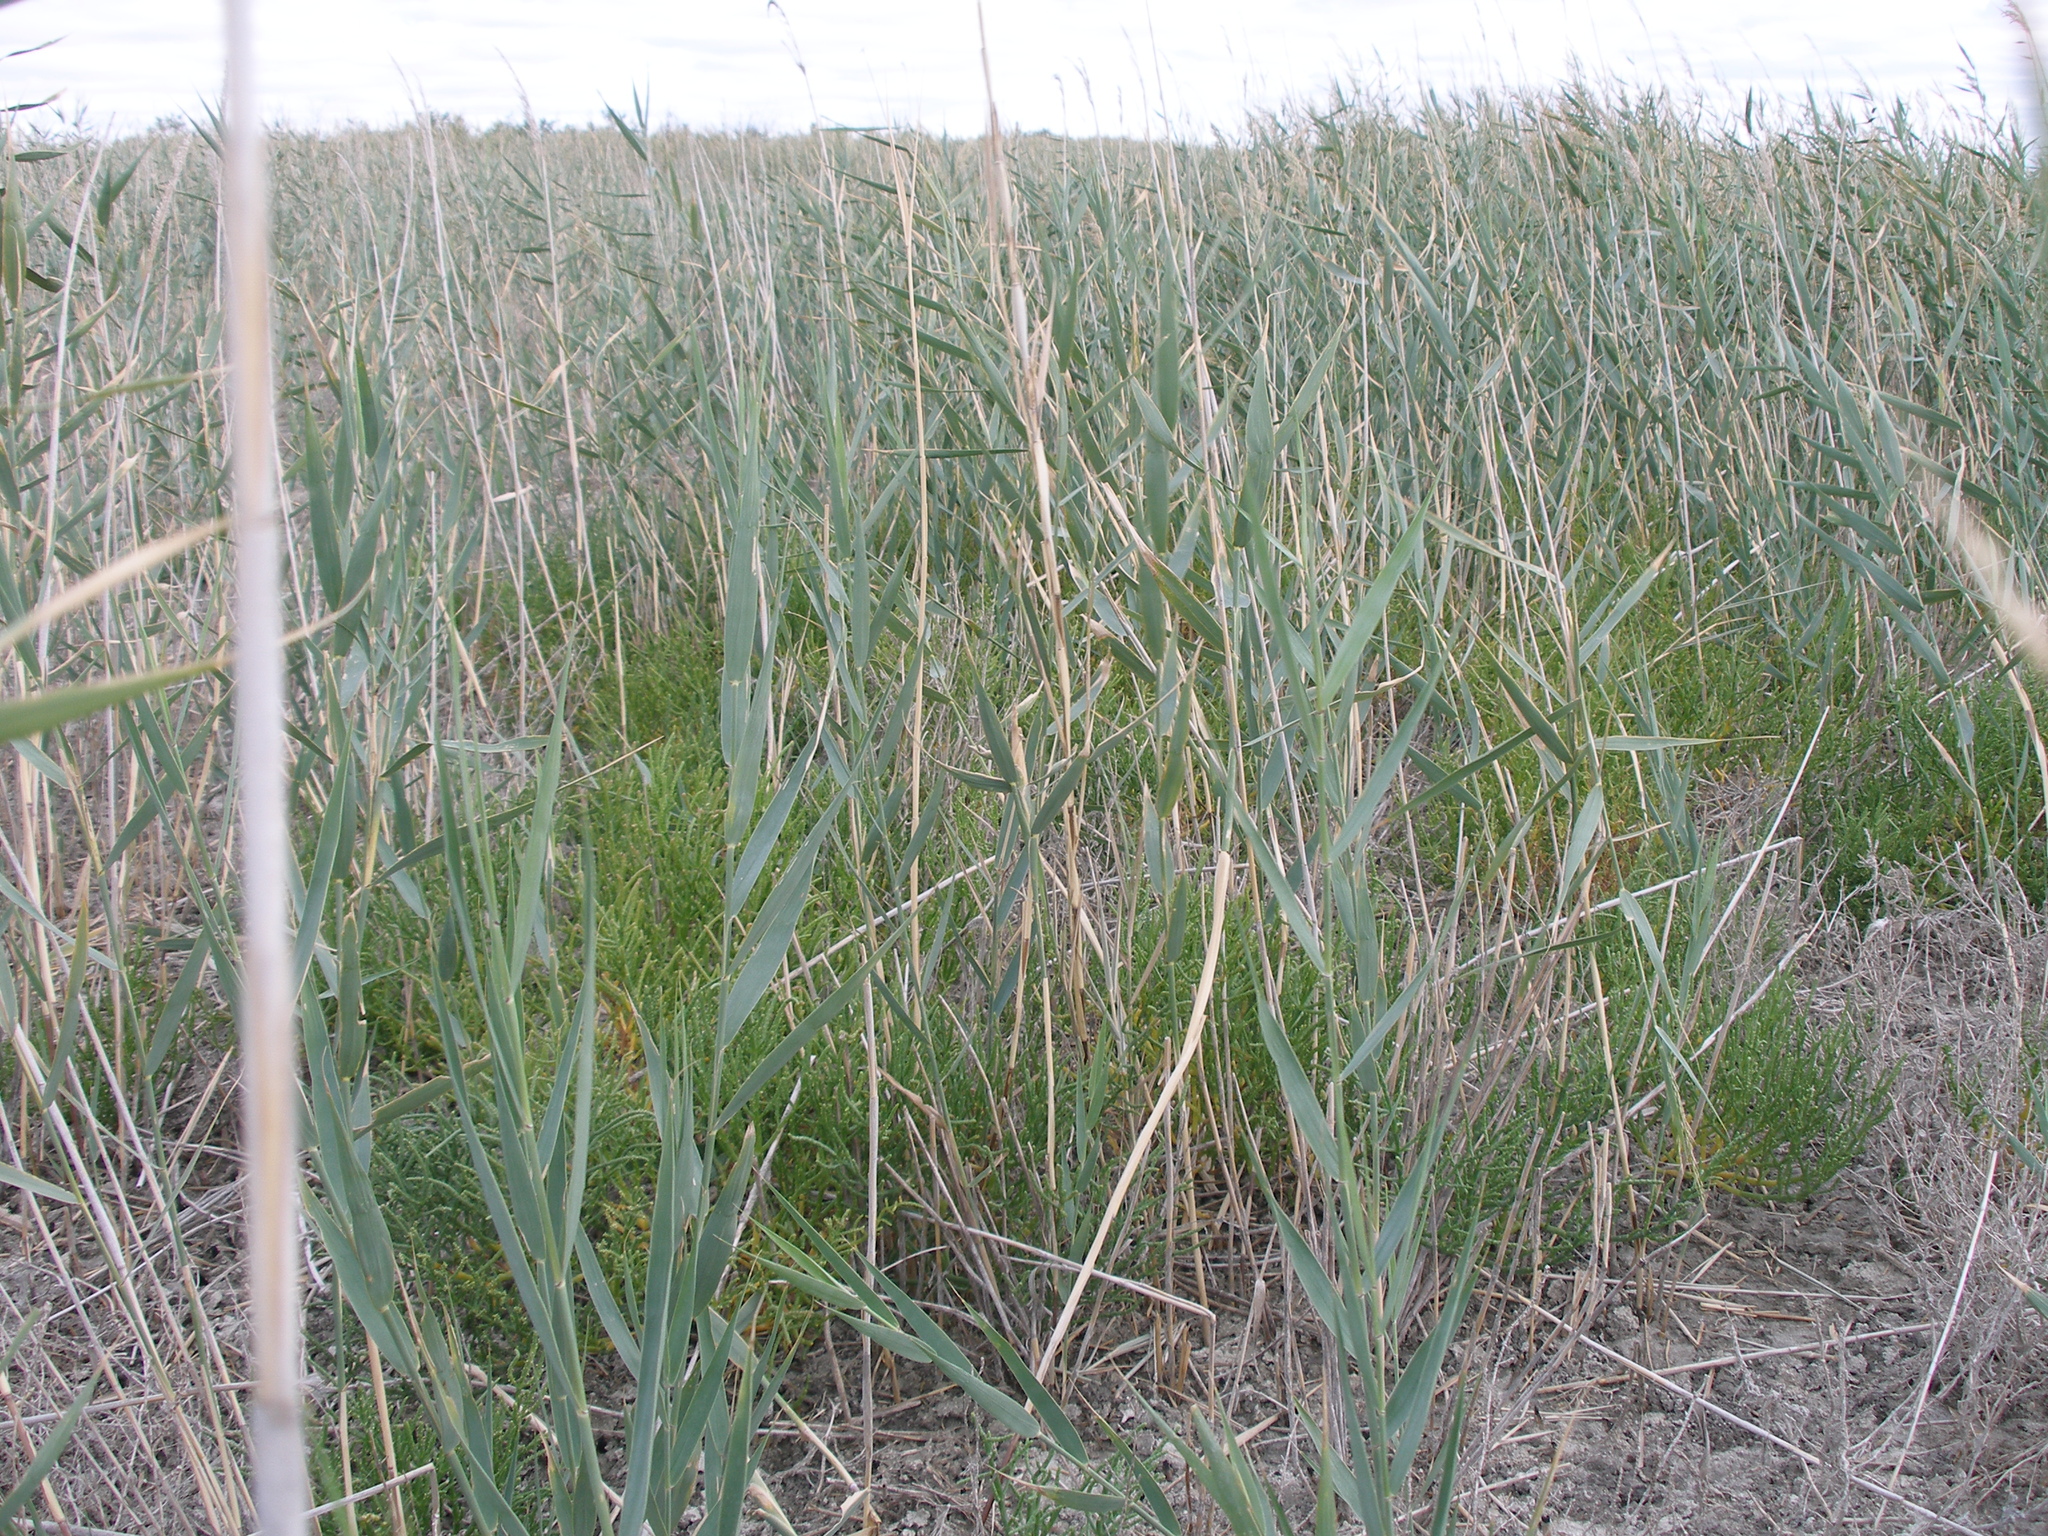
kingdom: Plantae
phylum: Tracheophyta
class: Liliopsida
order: Poales
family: Poaceae
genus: Phragmites
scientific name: Phragmites australis
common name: Common reed
